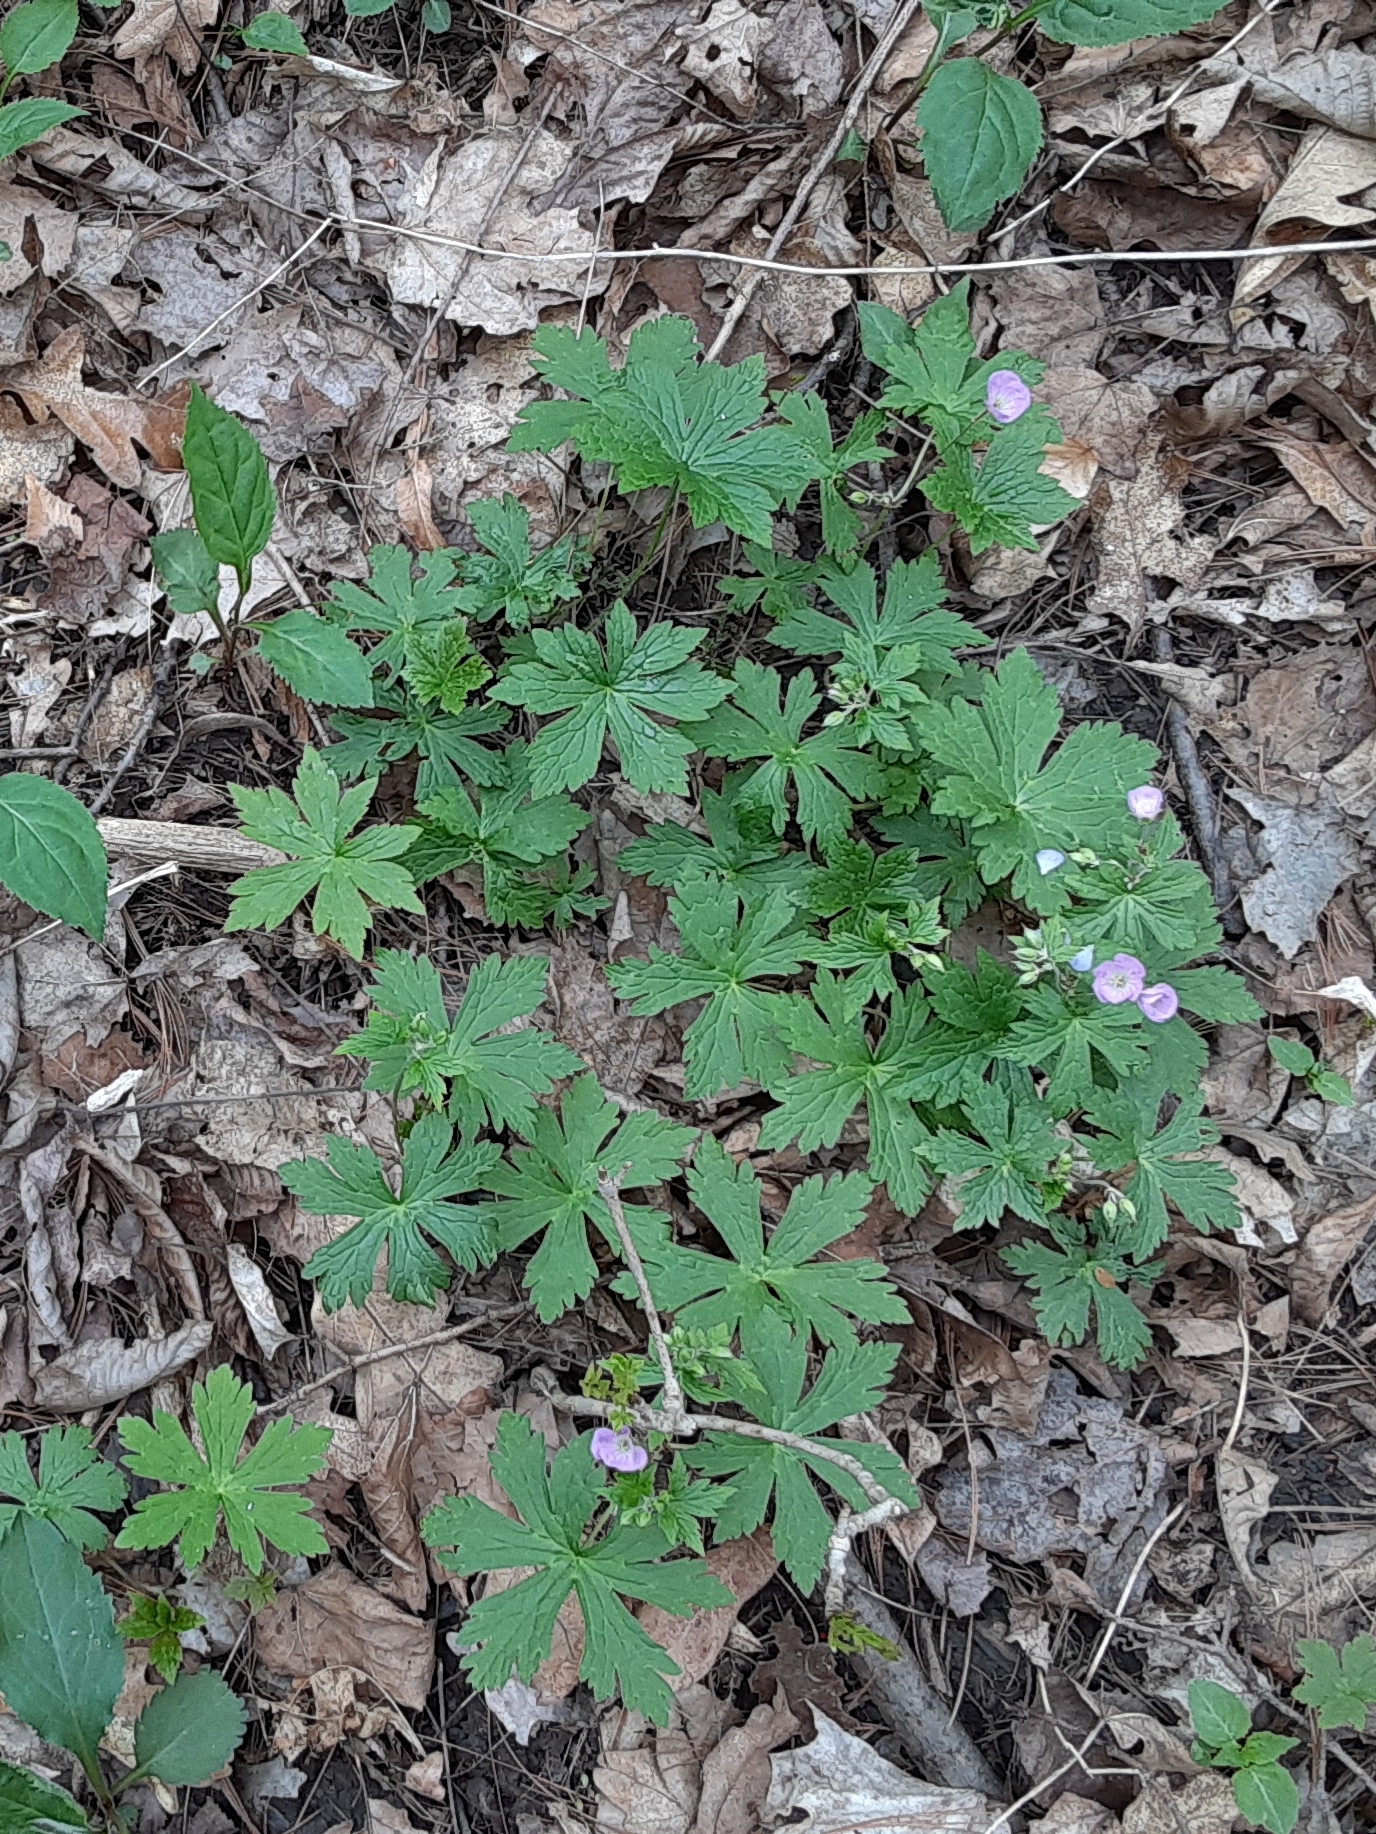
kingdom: Plantae
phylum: Tracheophyta
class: Magnoliopsida
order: Geraniales
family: Geraniaceae
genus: Geranium
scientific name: Geranium maculatum
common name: Spotted geranium
